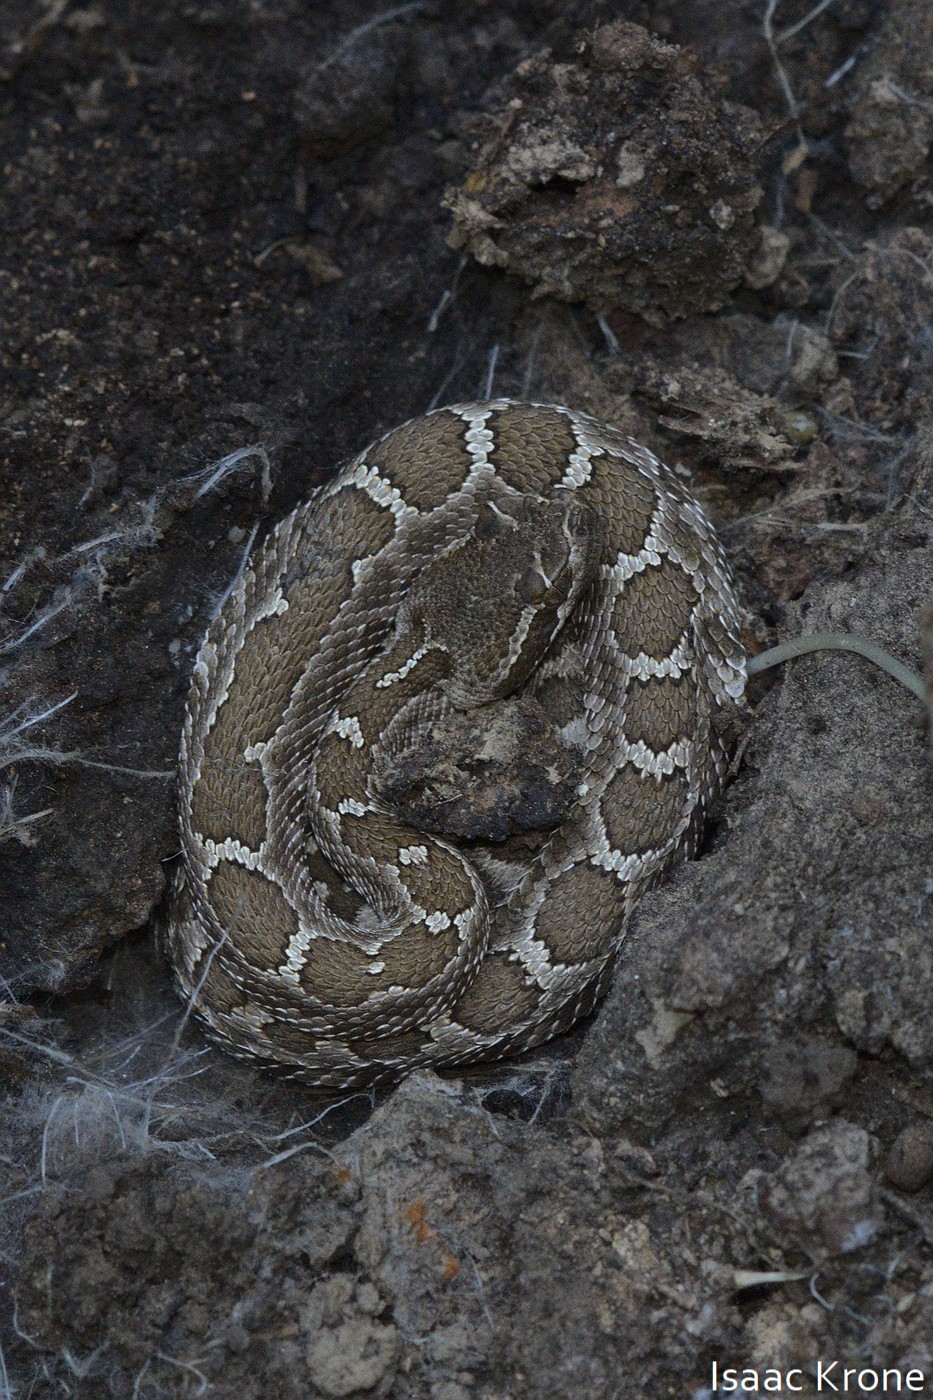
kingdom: Animalia
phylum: Chordata
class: Squamata
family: Viperidae
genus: Crotalus
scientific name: Crotalus oreganus
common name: Abyssus
